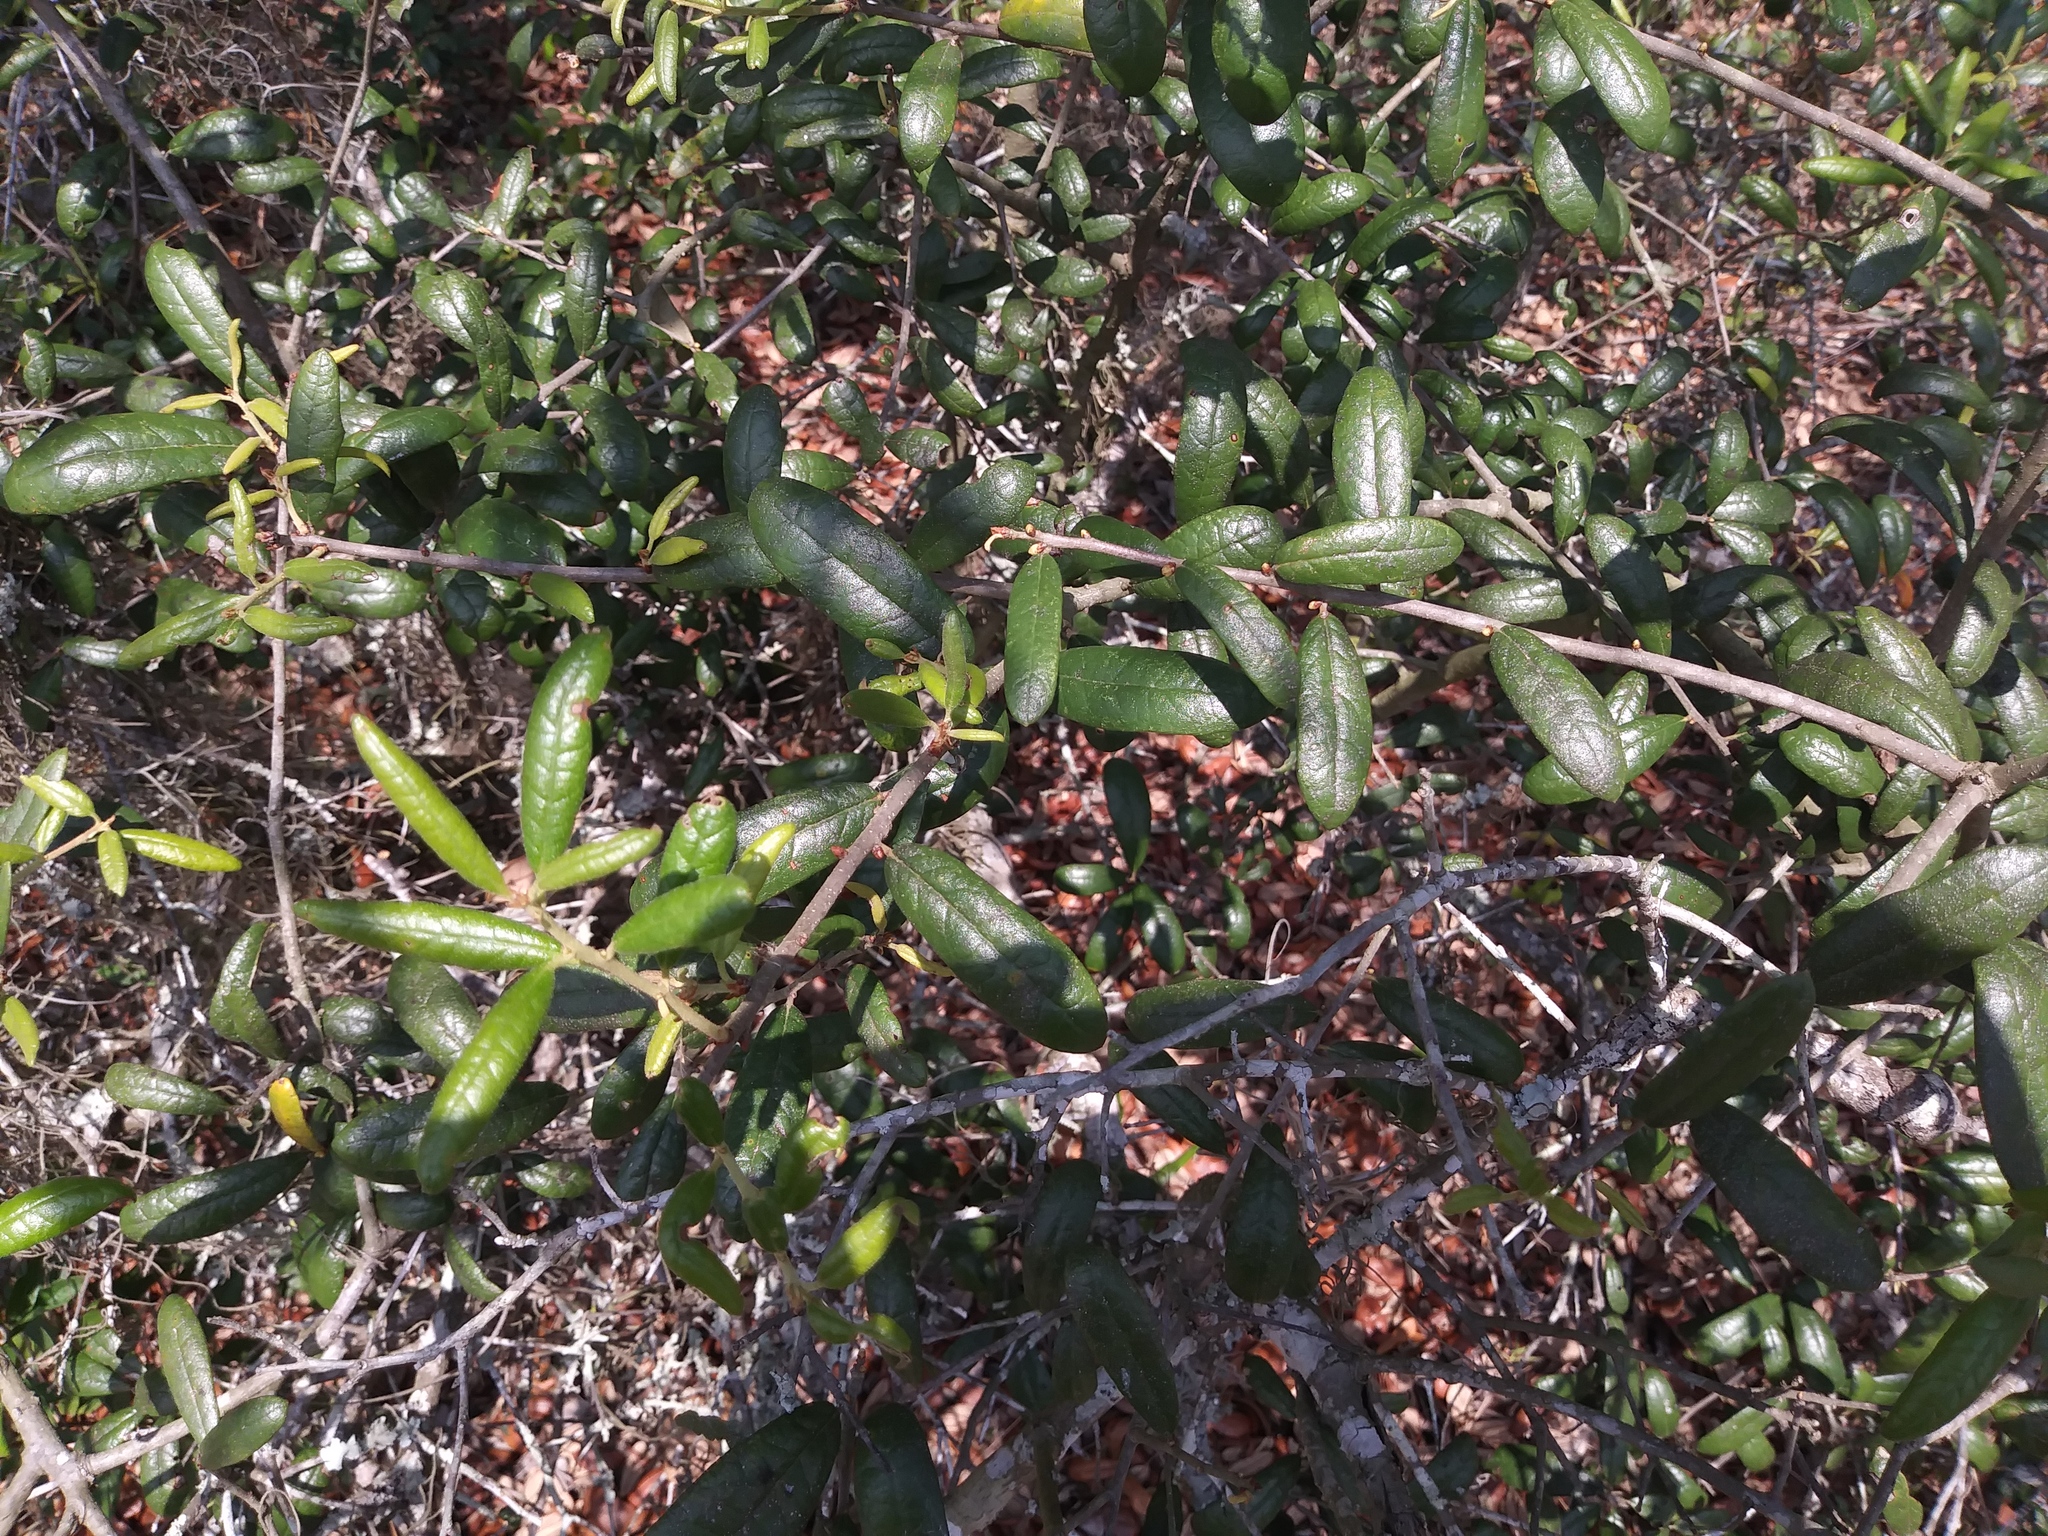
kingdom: Plantae
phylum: Tracheophyta
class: Magnoliopsida
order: Fagales
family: Fagaceae
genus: Quercus
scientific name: Quercus geminata
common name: Sand live oak
